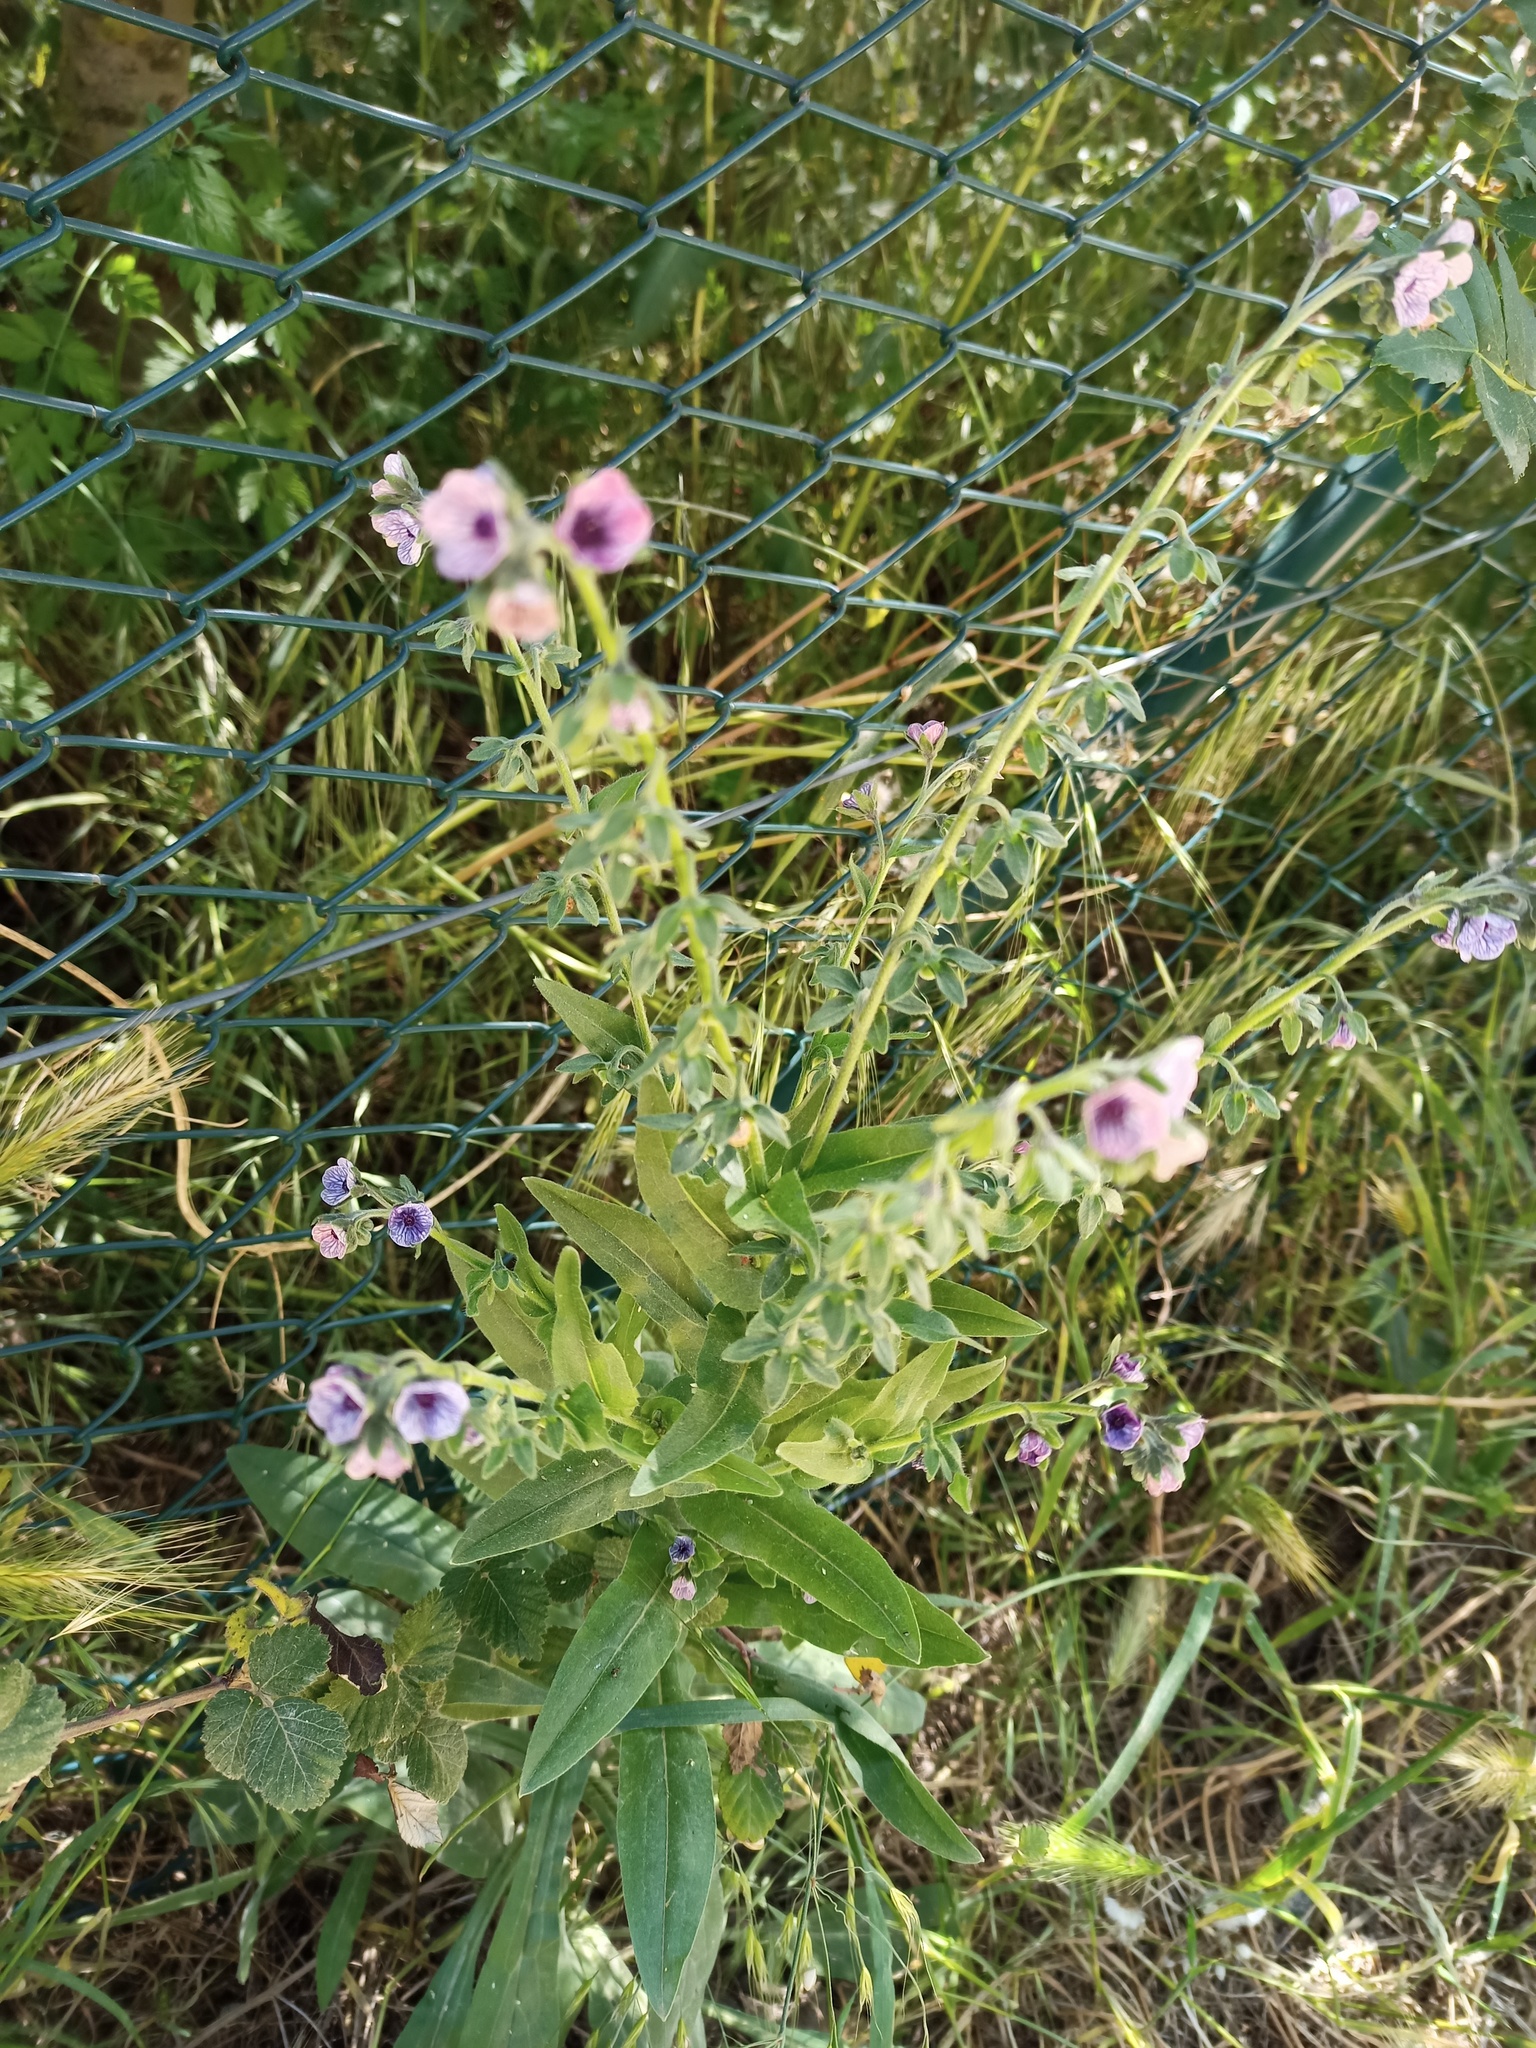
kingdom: Plantae
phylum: Tracheophyta
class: Magnoliopsida
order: Boraginales
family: Boraginaceae
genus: Cynoglossum
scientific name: Cynoglossum creticum
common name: Blue hound's tongue
